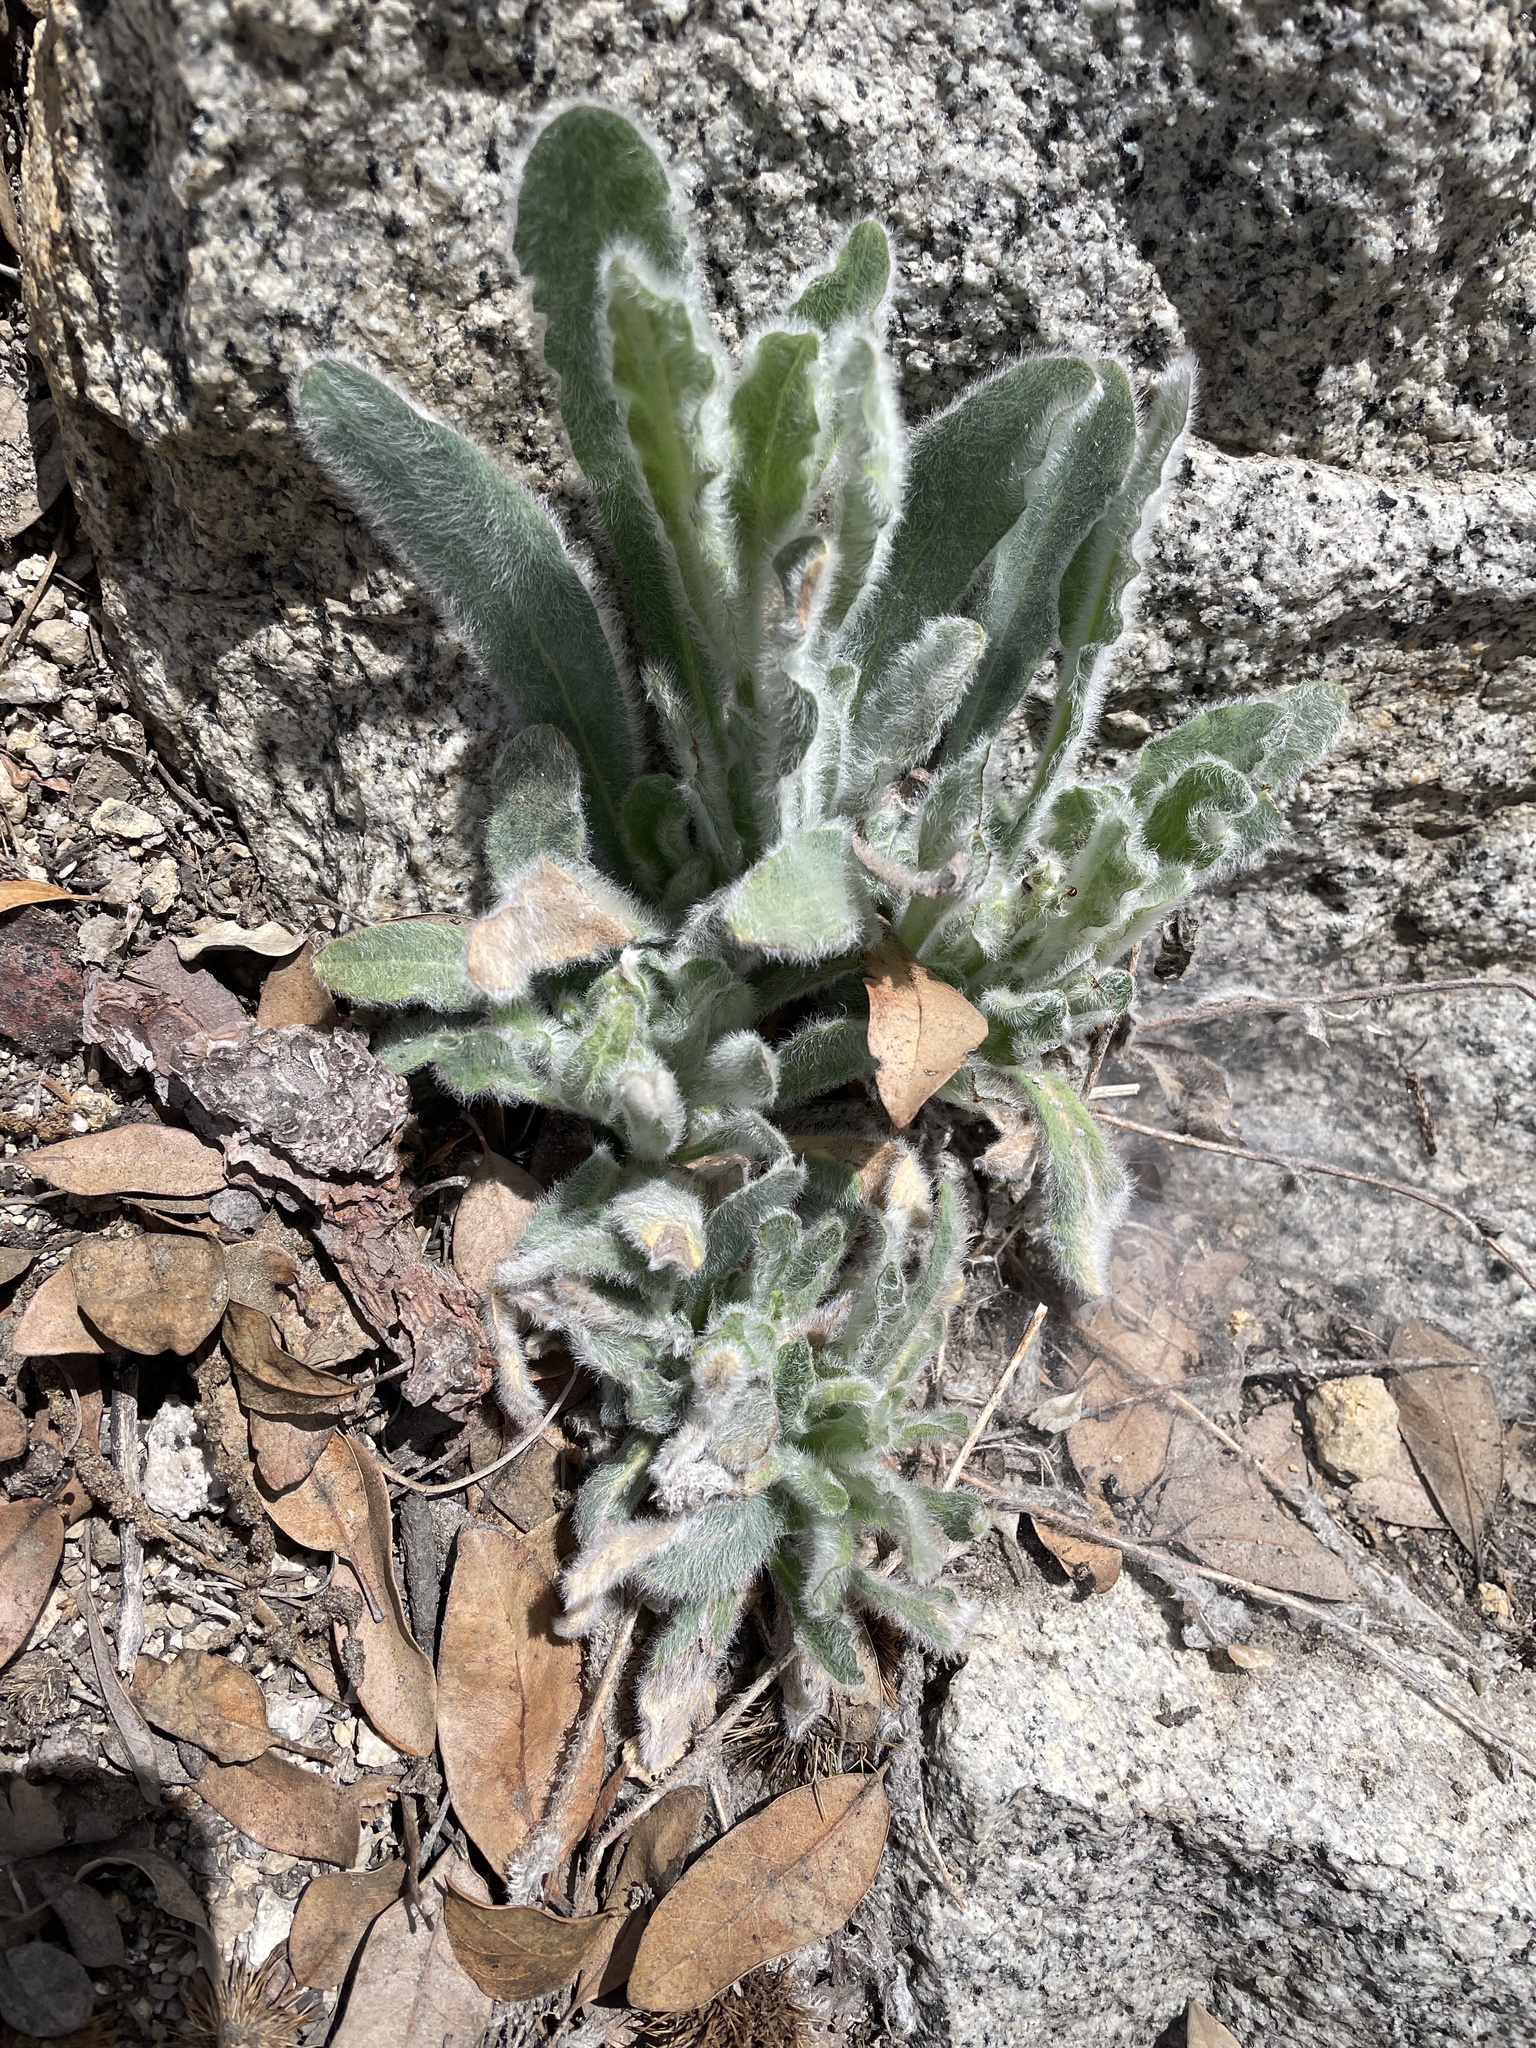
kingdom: Plantae
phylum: Tracheophyta
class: Magnoliopsida
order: Asterales
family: Asteraceae
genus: Hieracium
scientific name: Hieracium horridum
